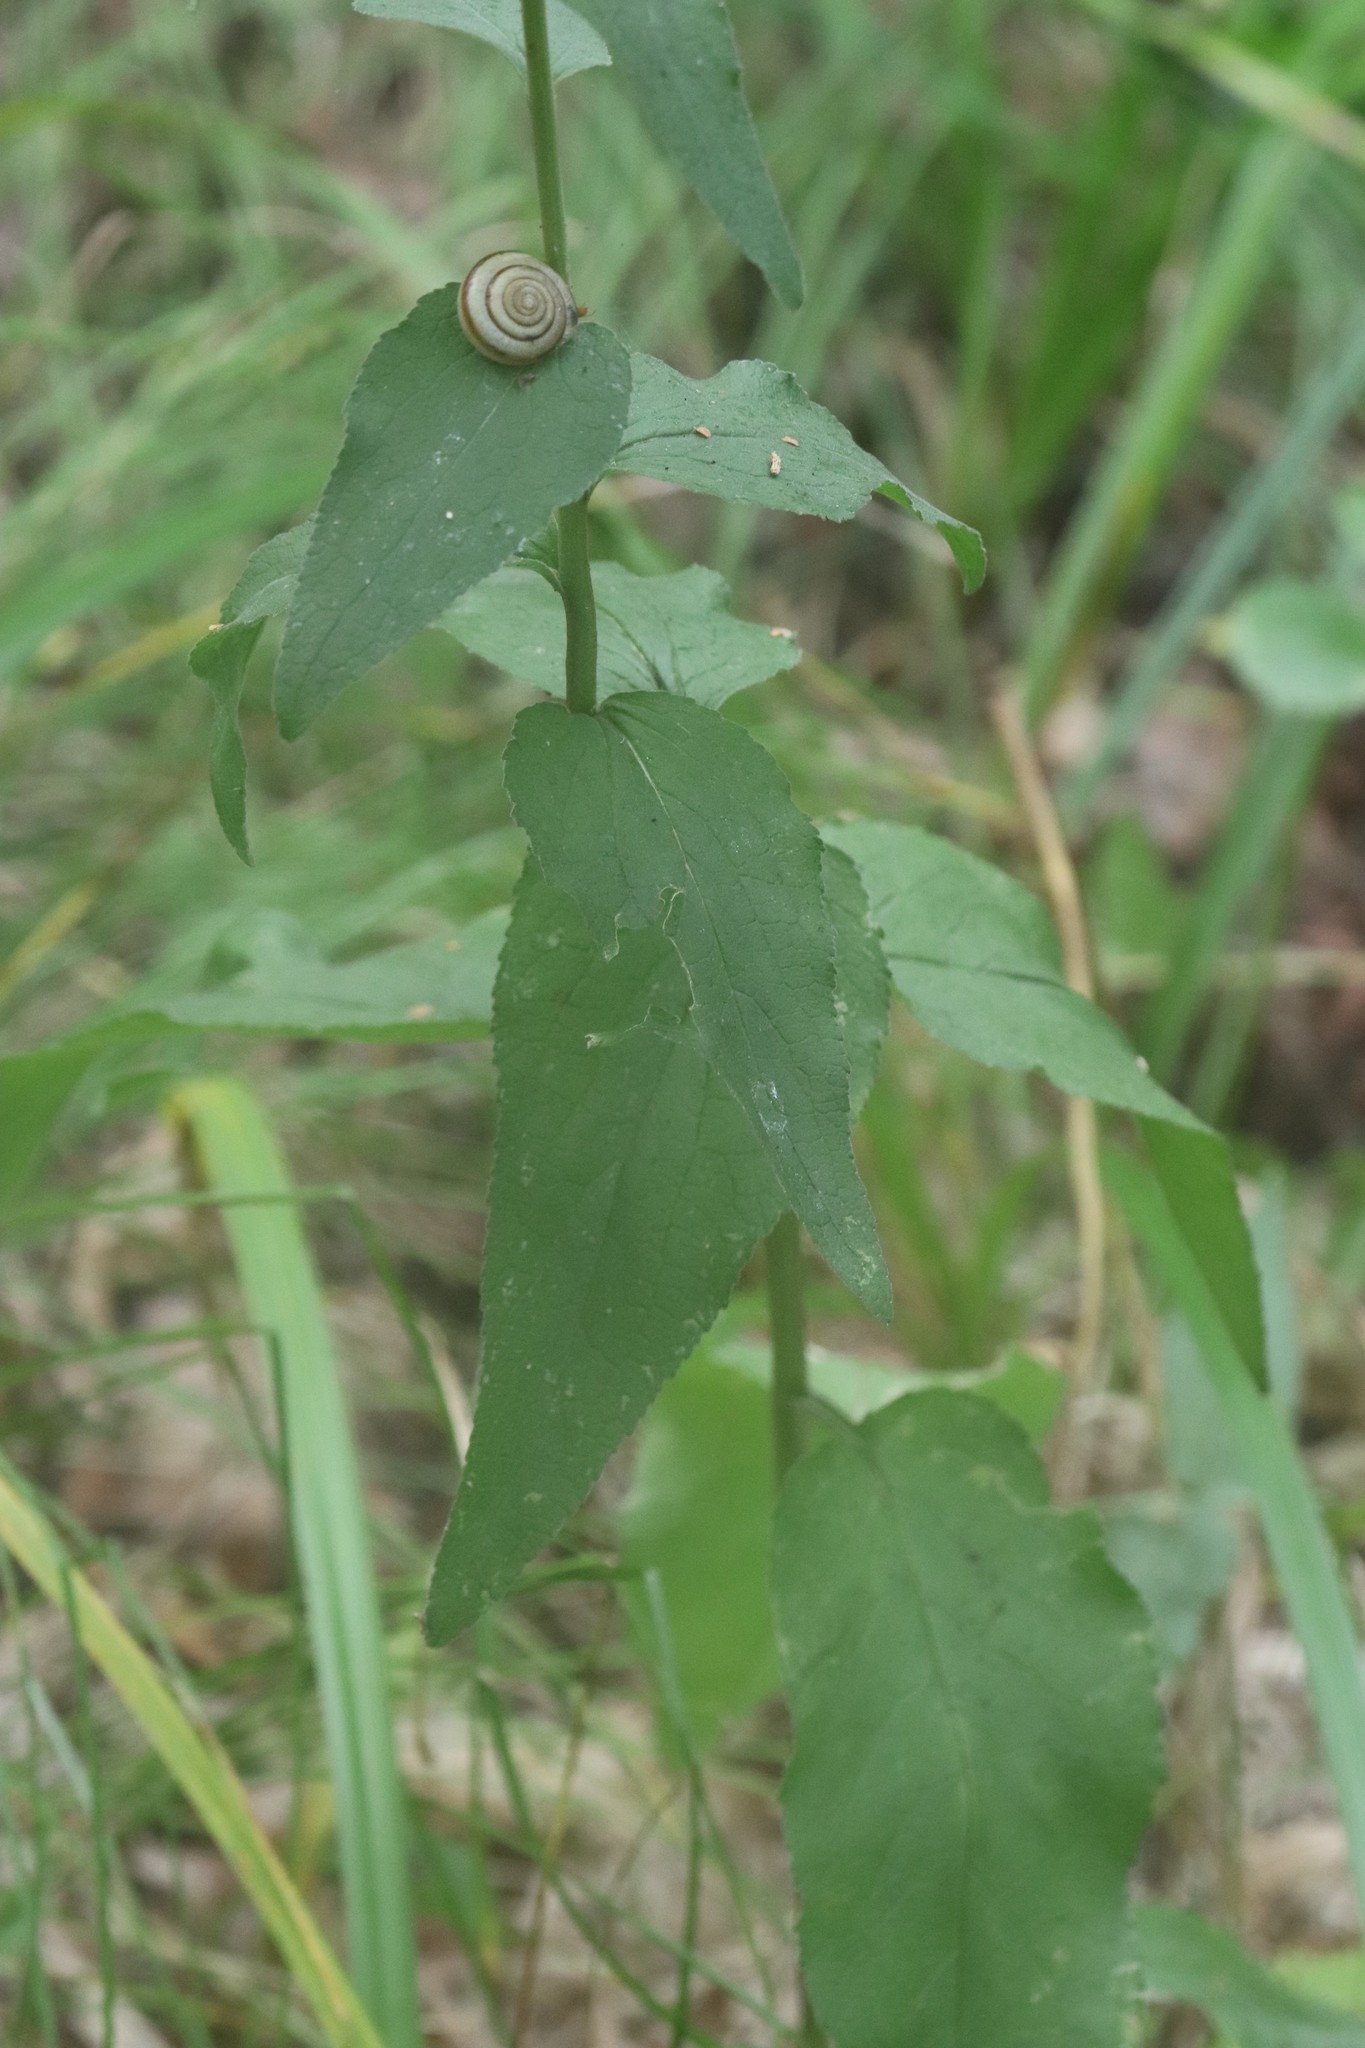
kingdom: Plantae
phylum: Tracheophyta
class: Magnoliopsida
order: Asterales
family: Campanulaceae
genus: Campanula
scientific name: Campanula glomerata
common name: Clustered bellflower
